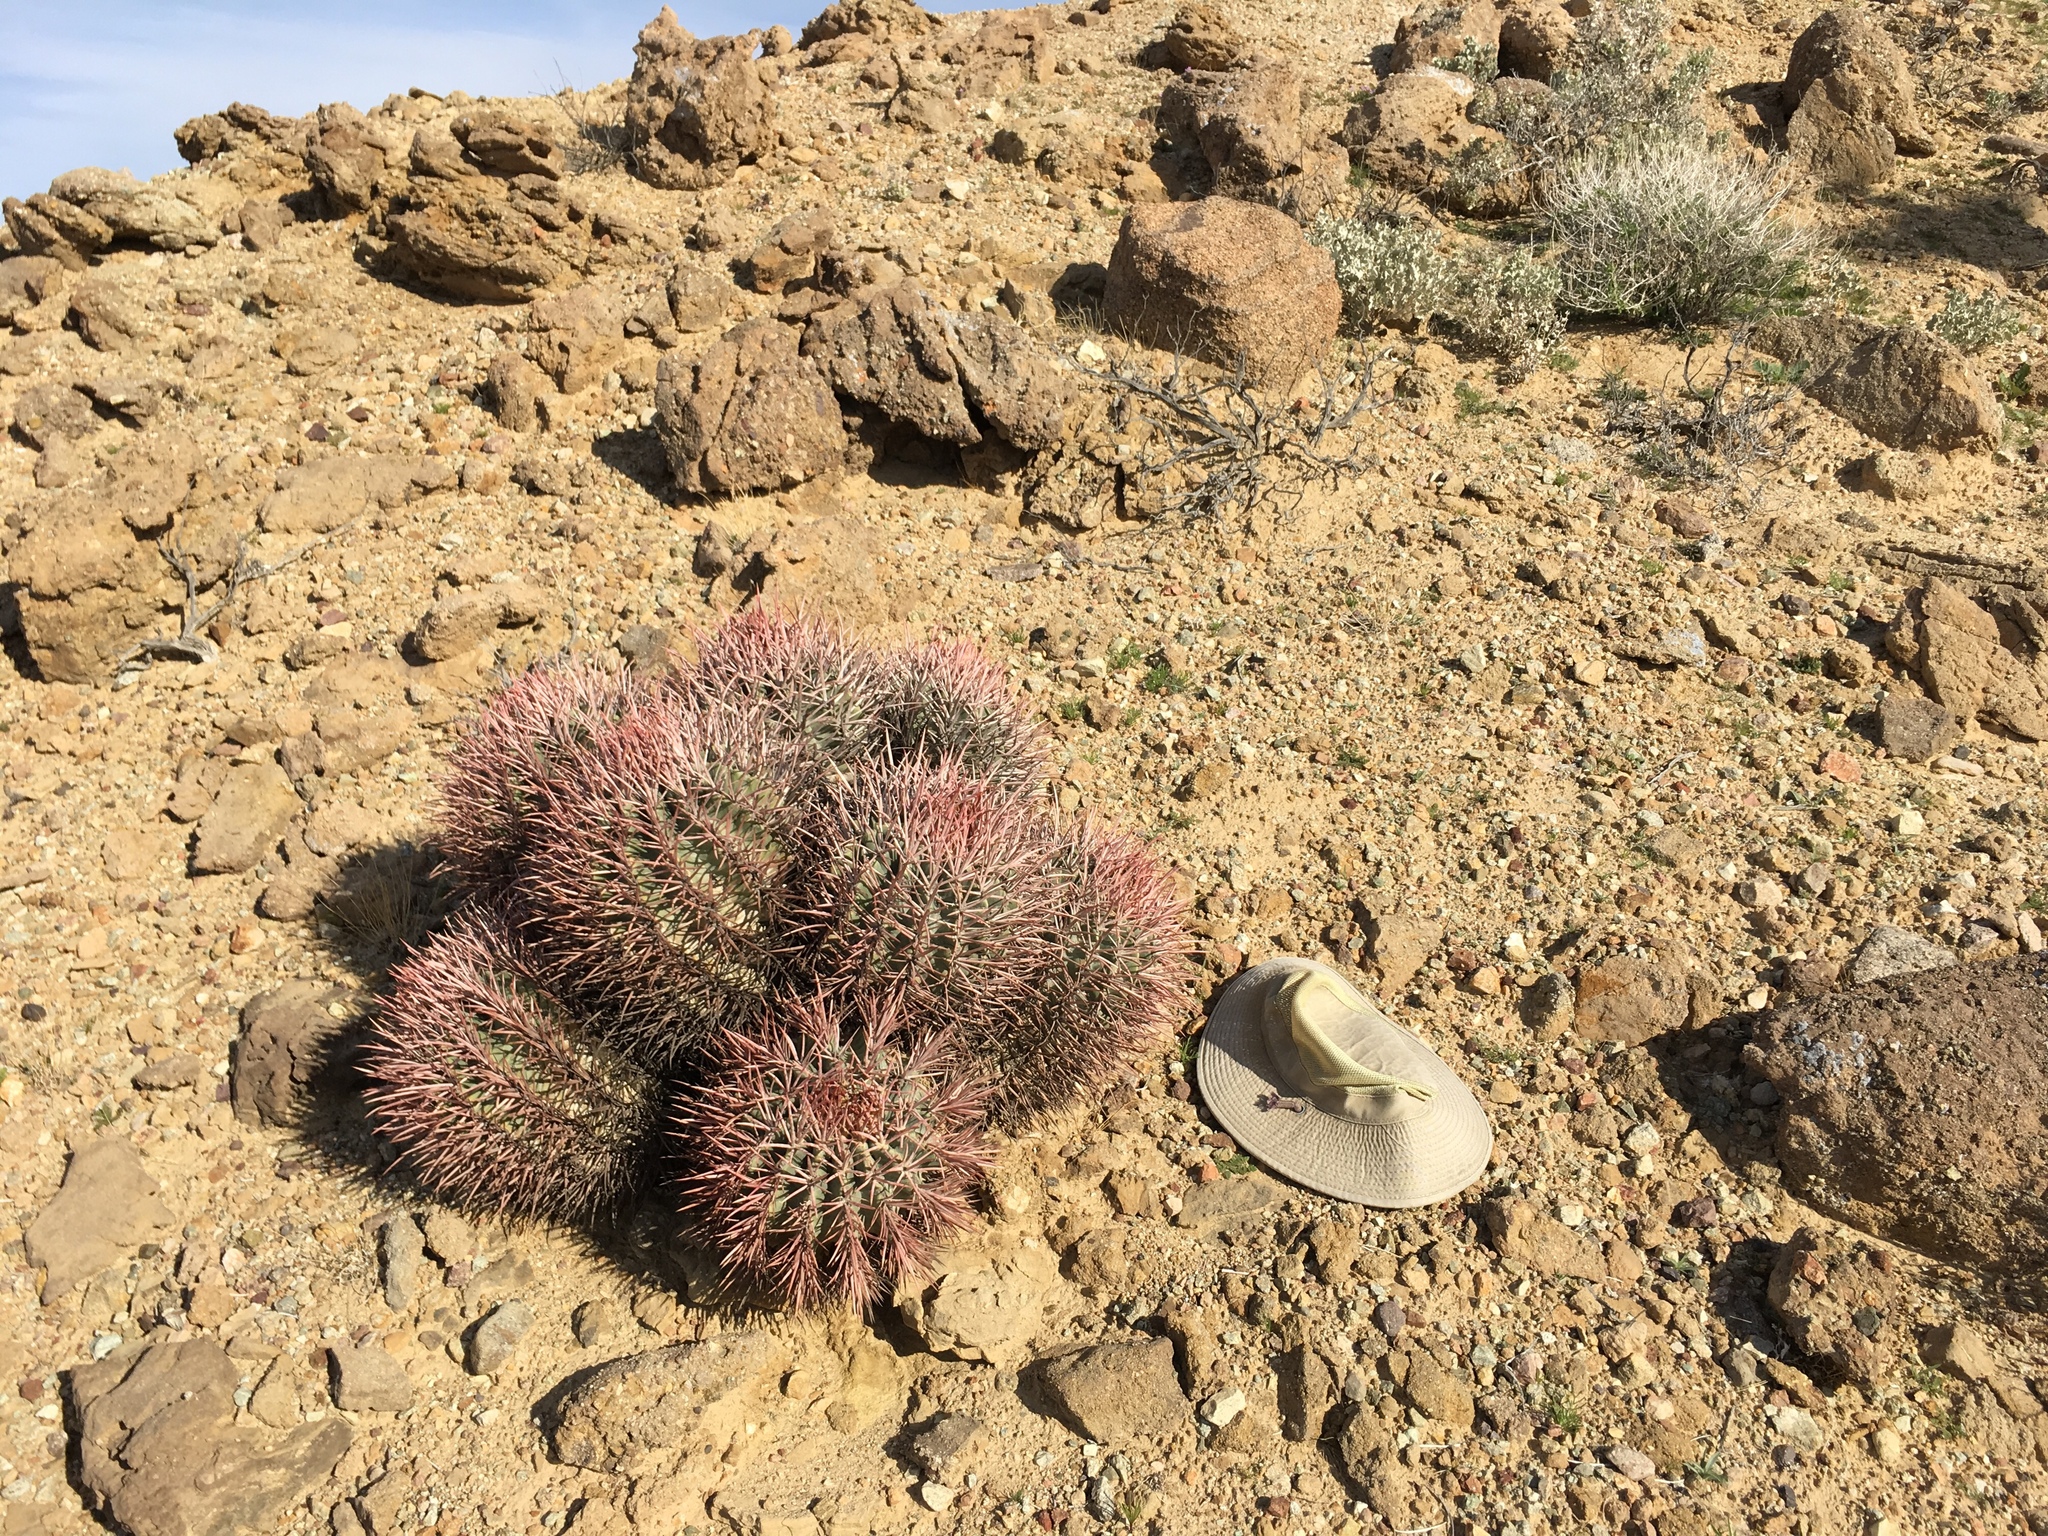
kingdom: Plantae
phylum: Tracheophyta
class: Magnoliopsida
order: Caryophyllales
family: Cactaceae
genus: Echinocactus
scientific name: Echinocactus polycephalus
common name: Cottontop cactus
